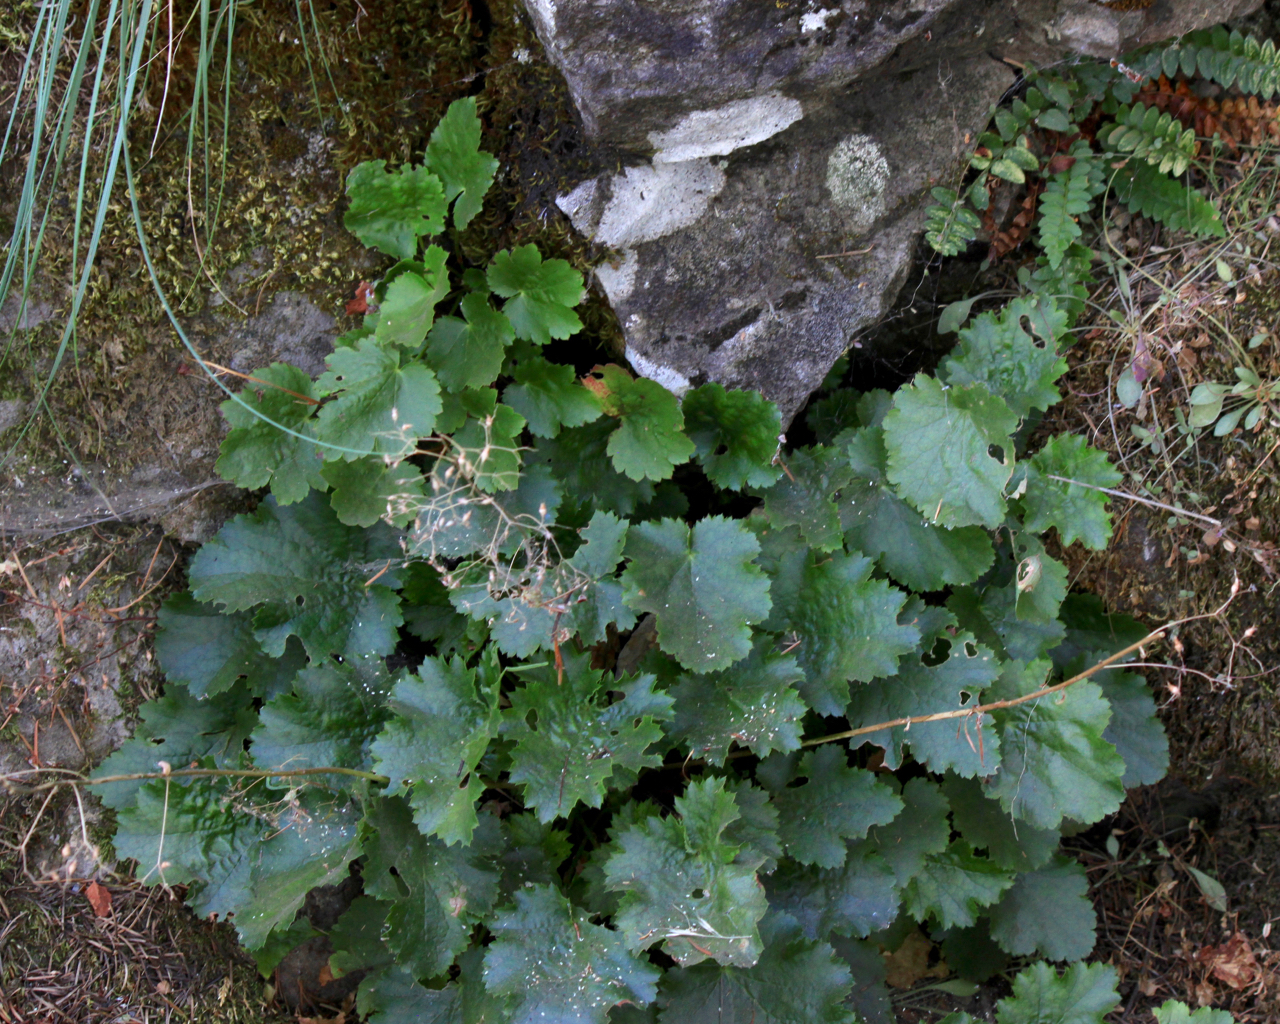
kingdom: Plantae
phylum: Tracheophyta
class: Magnoliopsida
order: Saxifragales
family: Saxifragaceae
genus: Heuchera
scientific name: Heuchera micrantha
